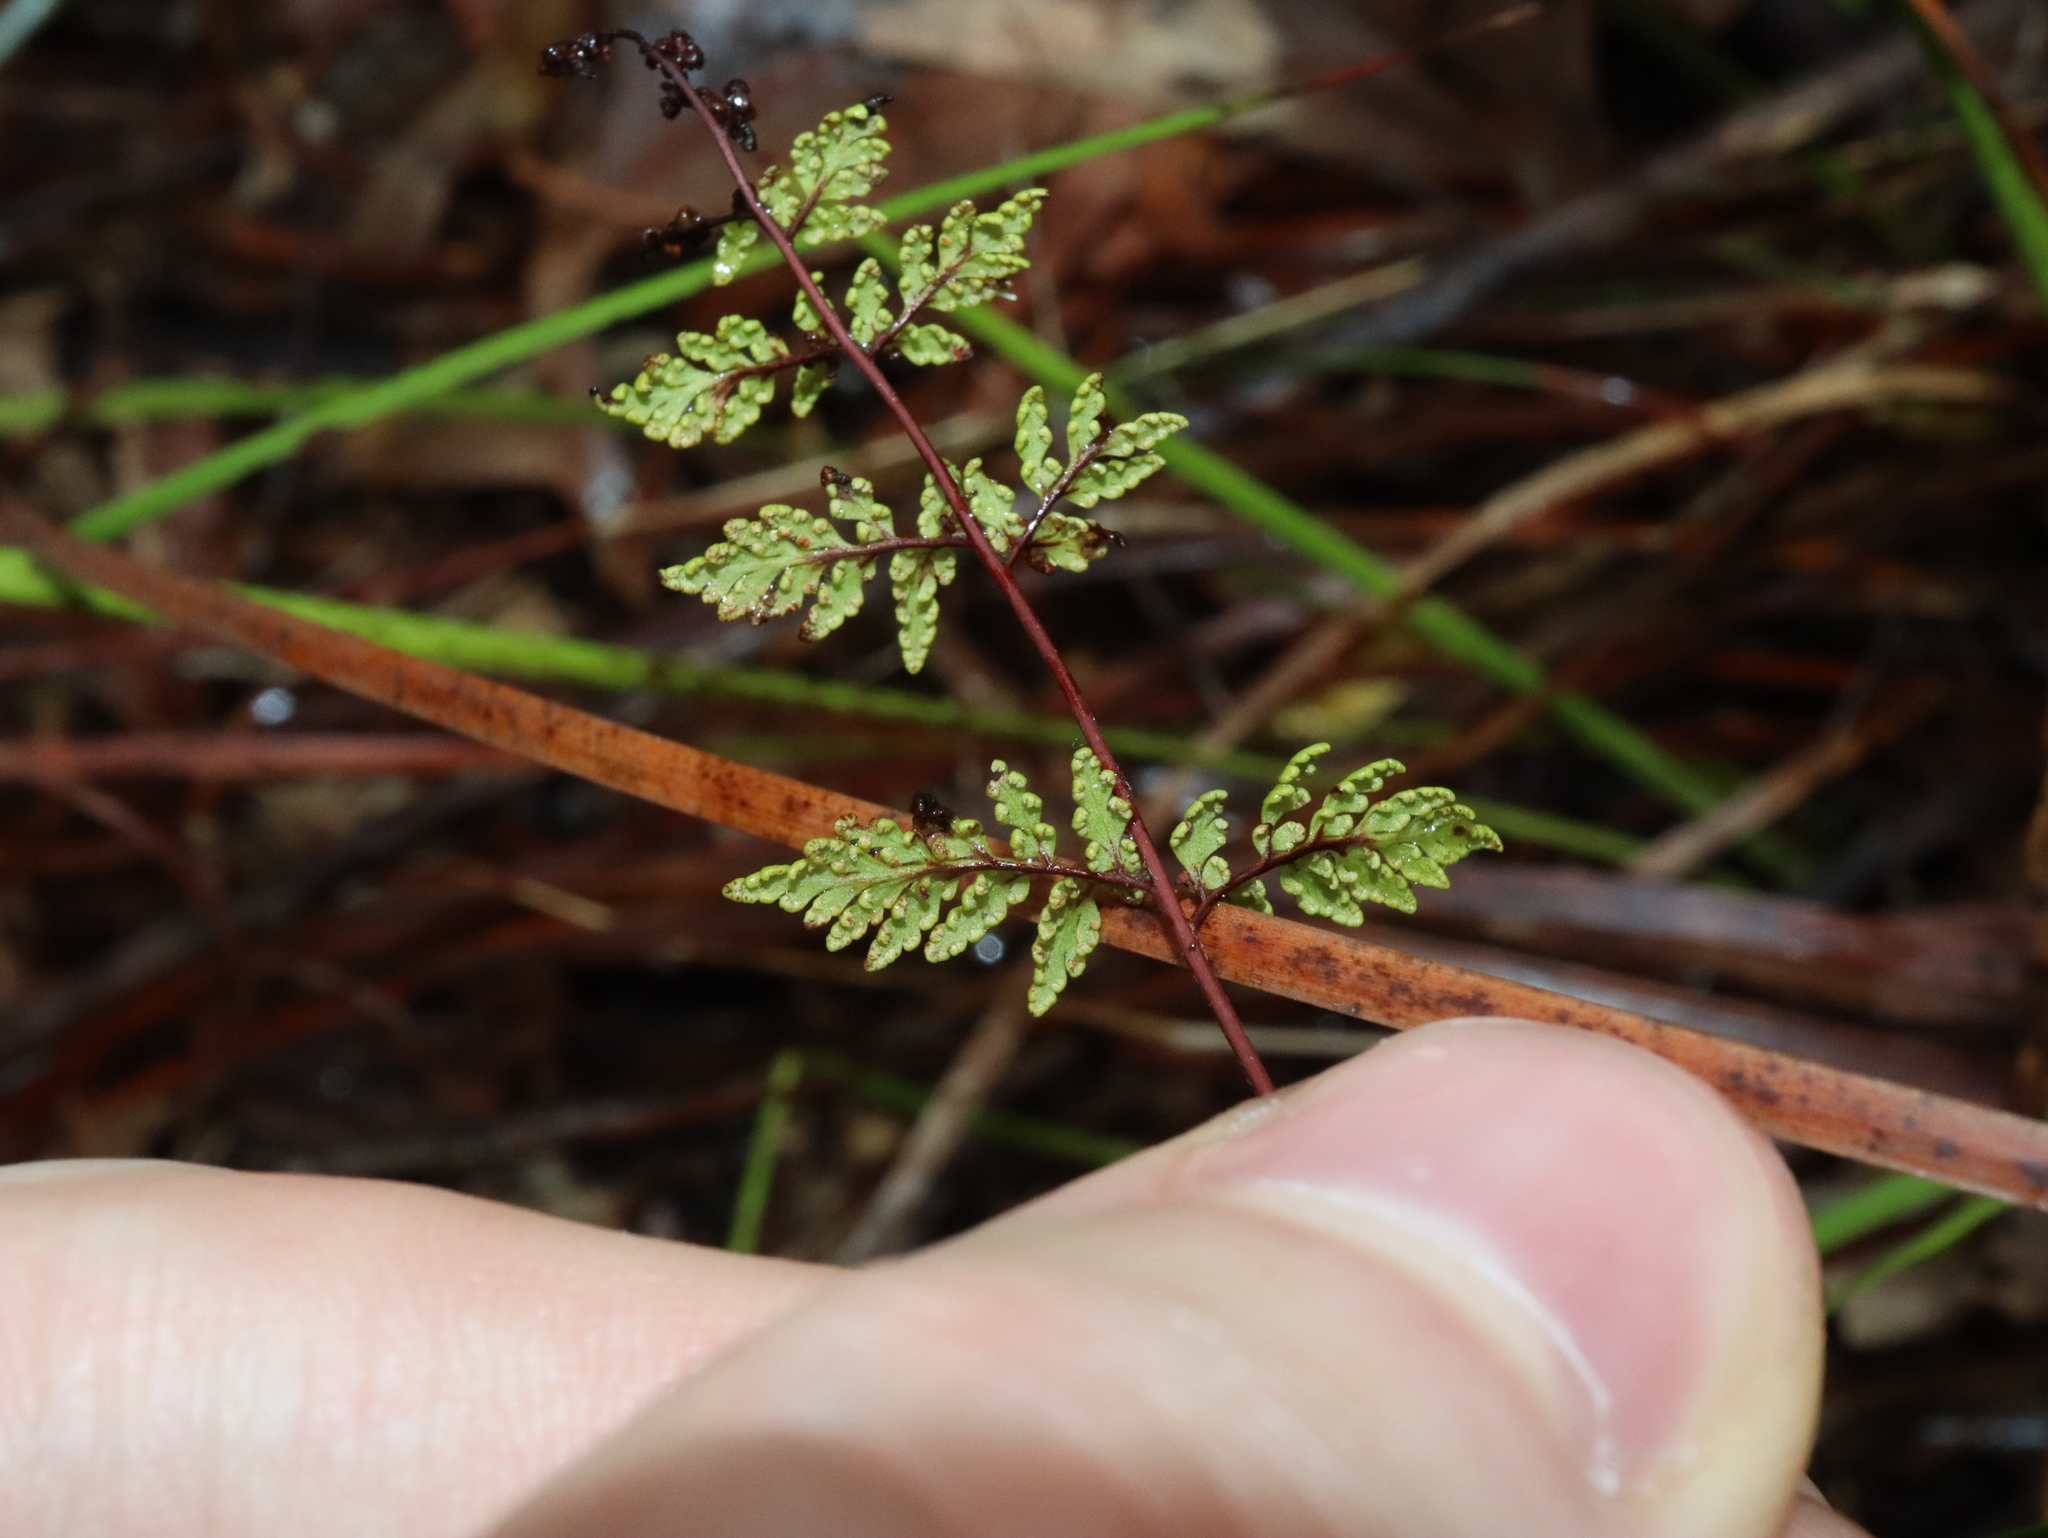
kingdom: Plantae
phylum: Tracheophyta
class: Polypodiopsida
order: Polypodiales
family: Pteridaceae
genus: Cheilanthes
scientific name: Cheilanthes sieberi
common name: Mulga fern
